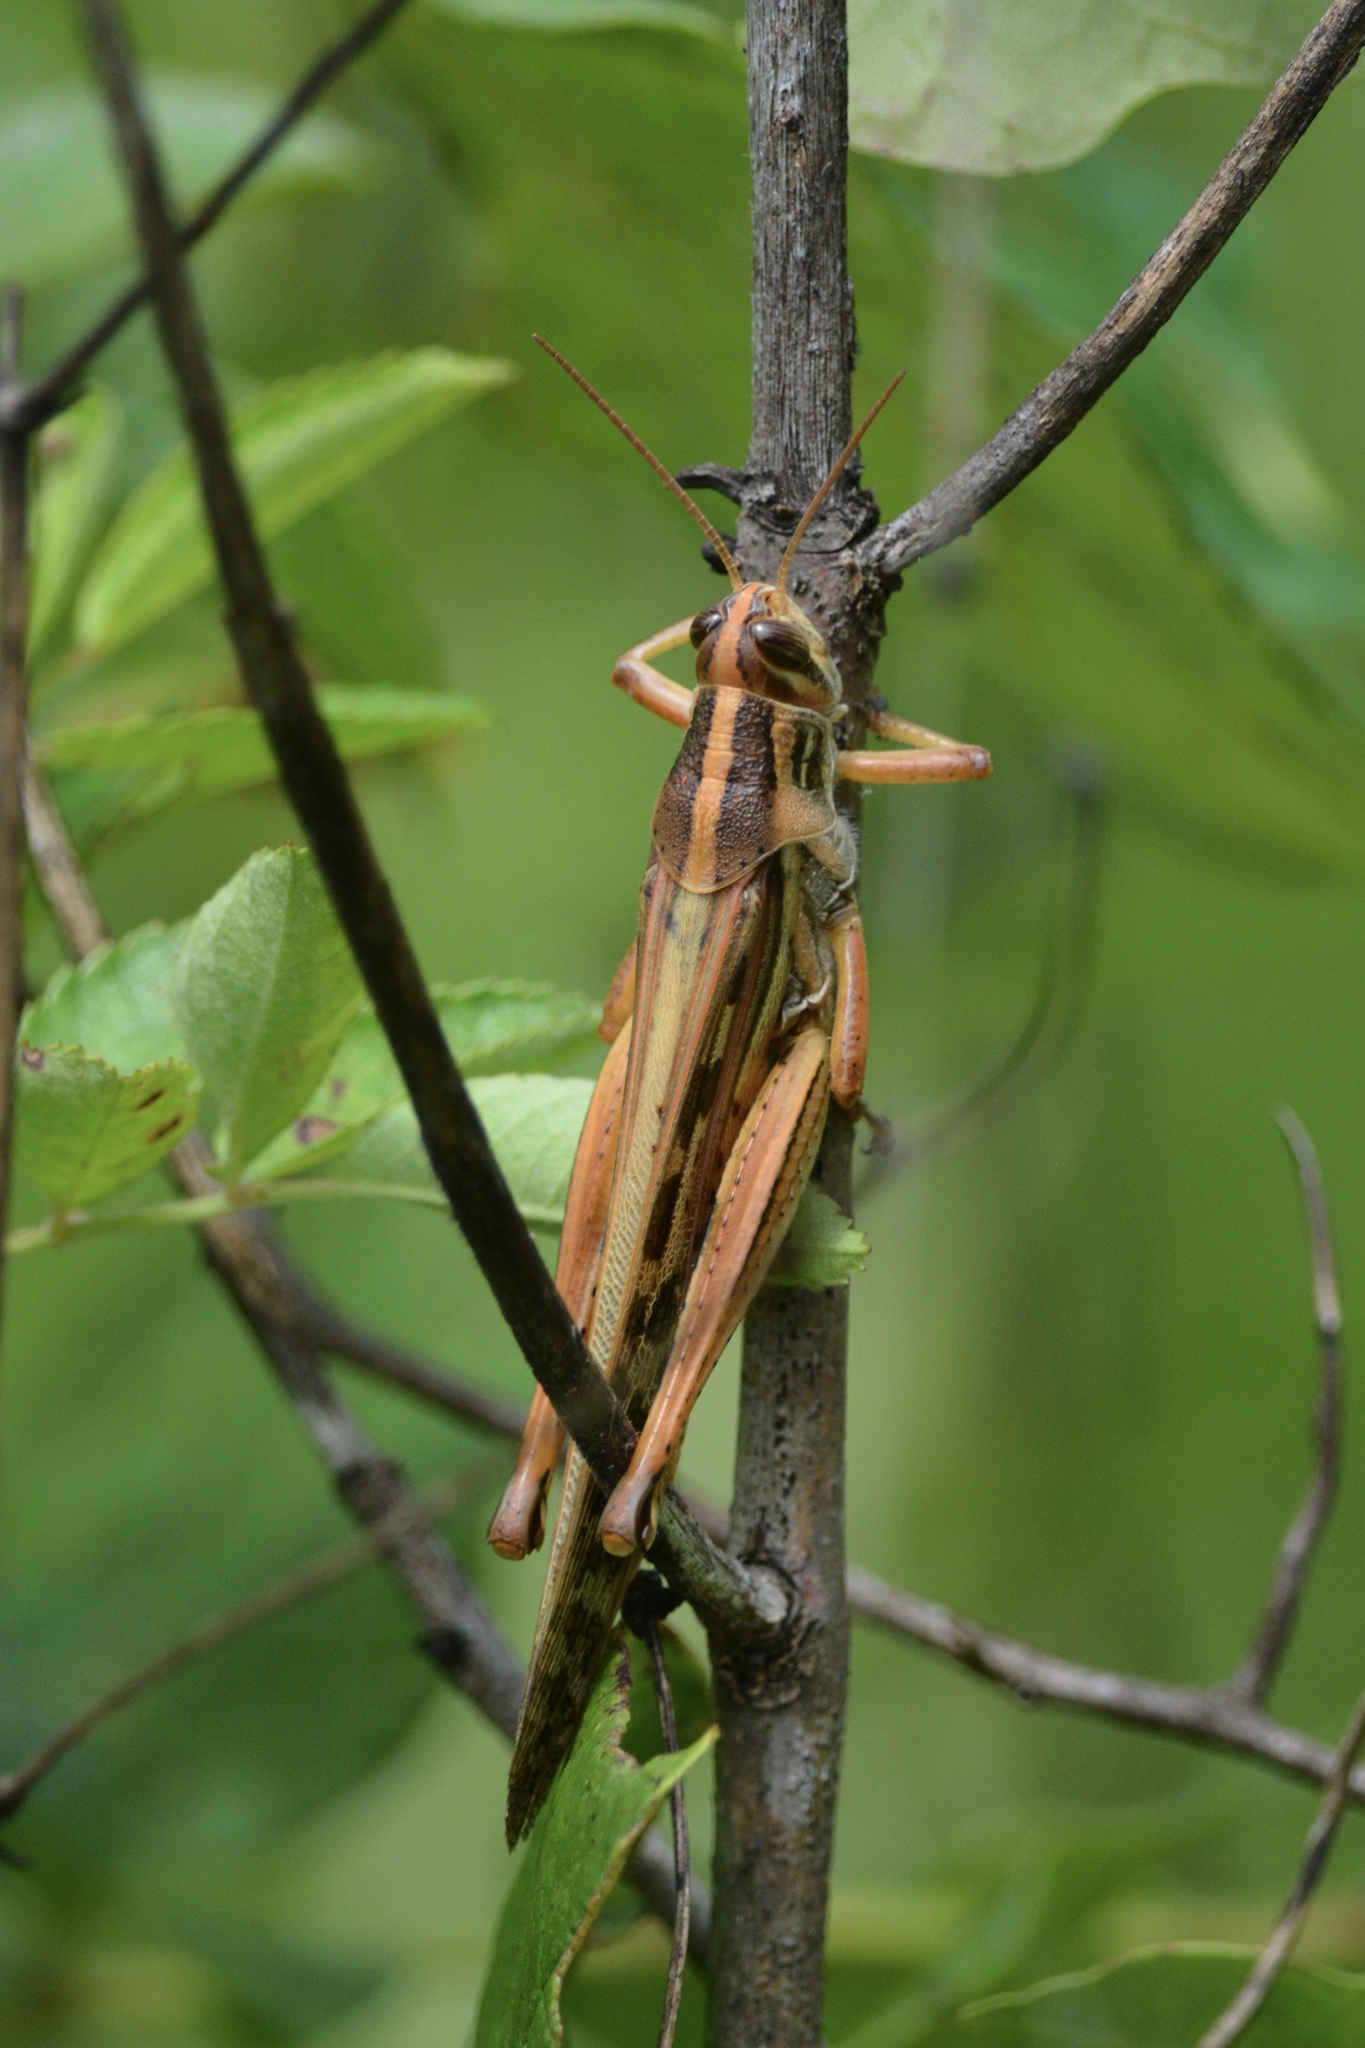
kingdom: Animalia
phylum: Arthropoda
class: Insecta
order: Orthoptera
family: Acrididae
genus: Schistocerca
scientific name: Schistocerca americana
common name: American bird locust
